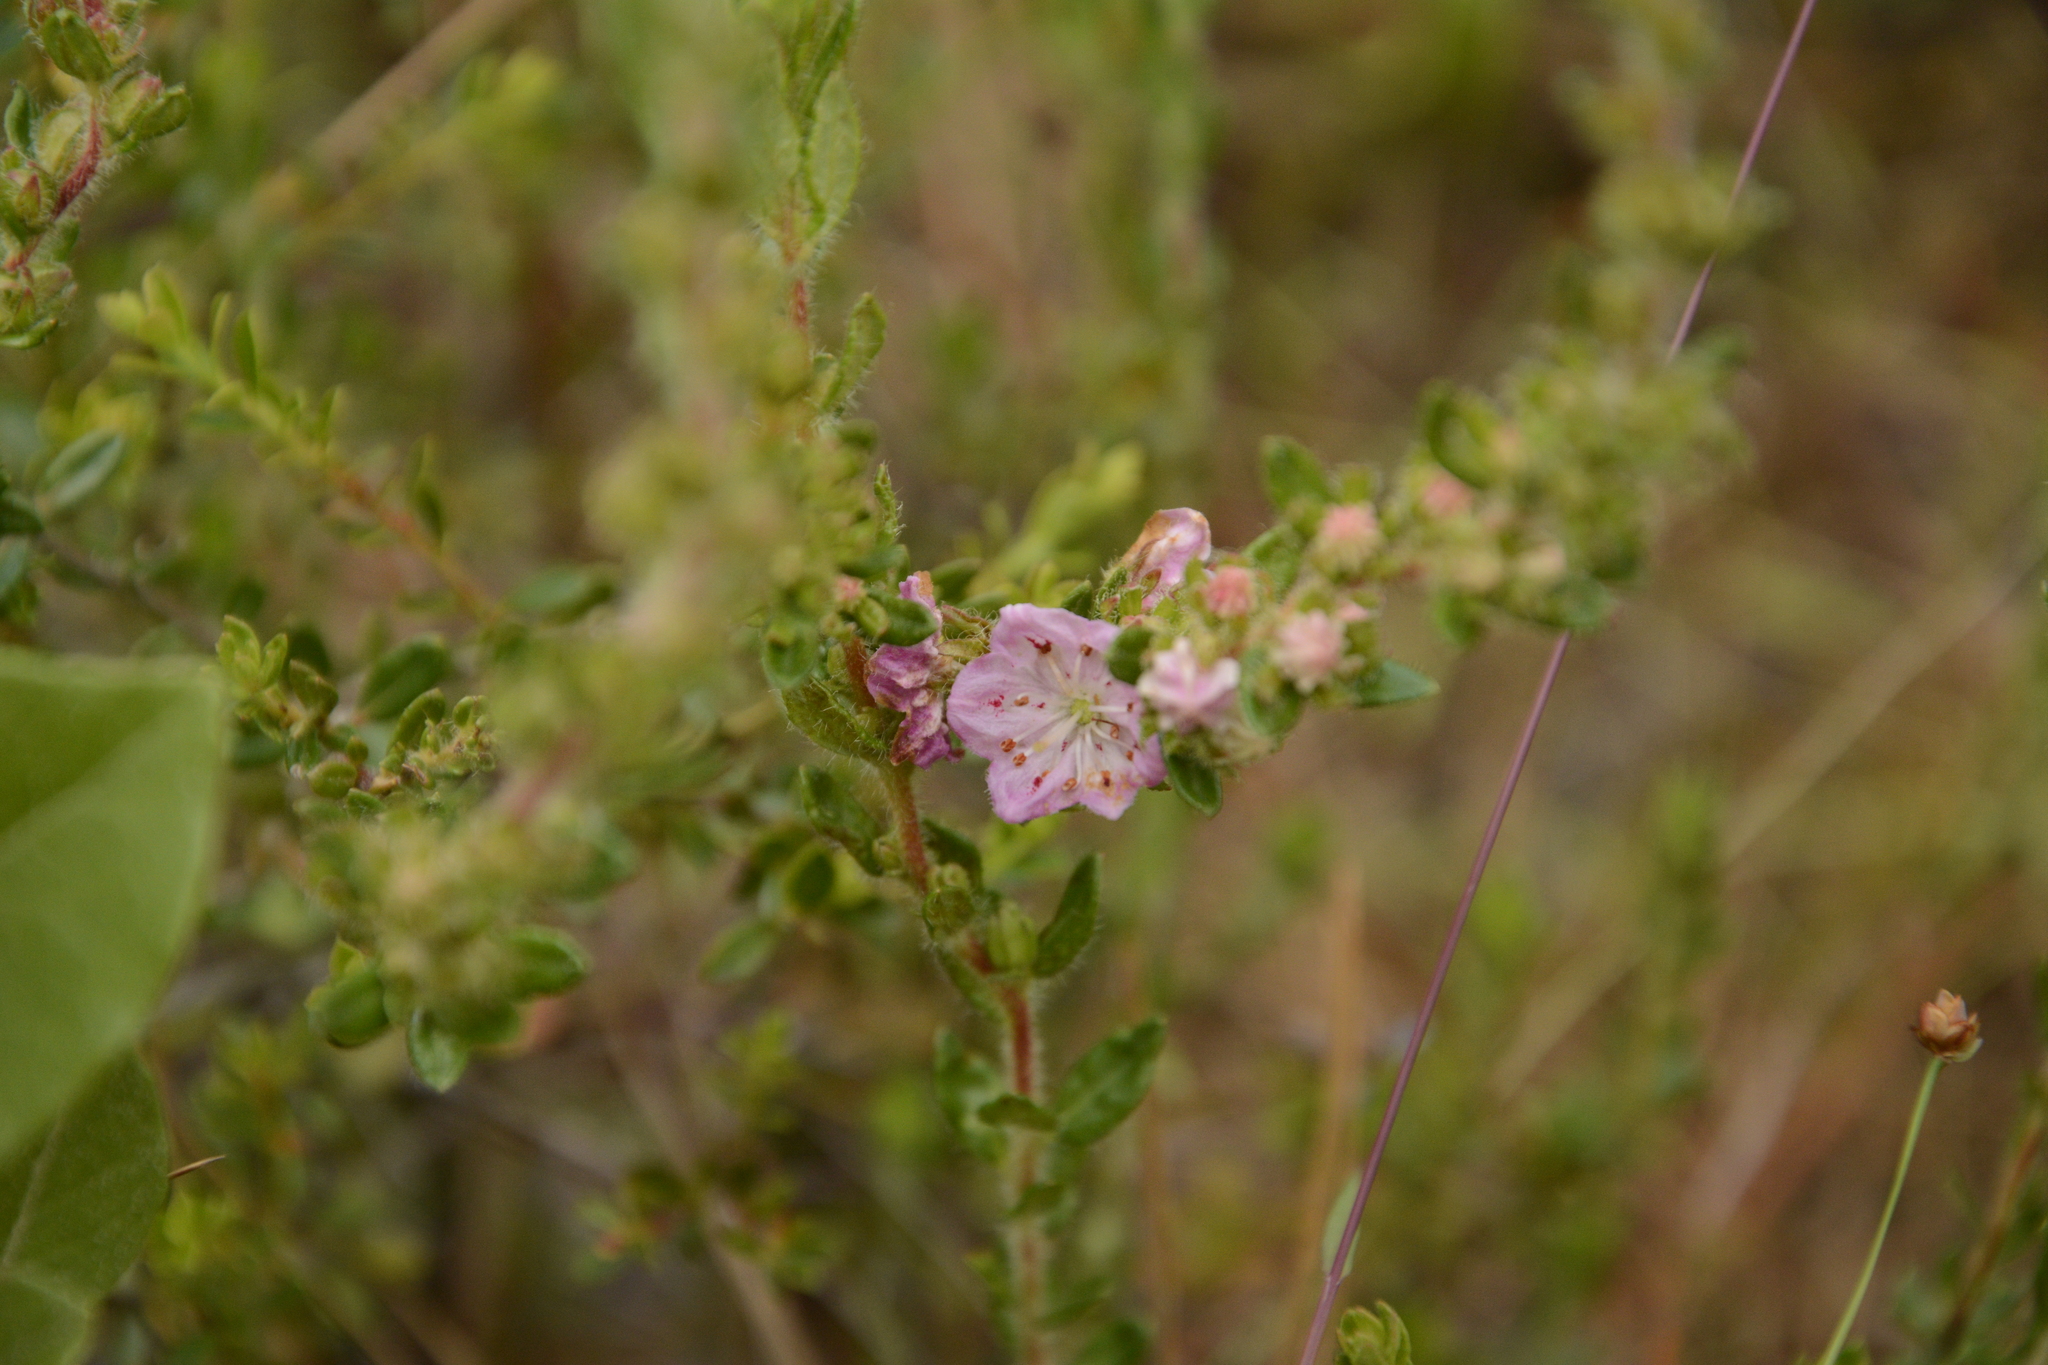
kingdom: Plantae
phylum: Tracheophyta
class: Magnoliopsida
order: Ericales
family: Ericaceae
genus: Kalmia
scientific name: Kalmia hirsuta
